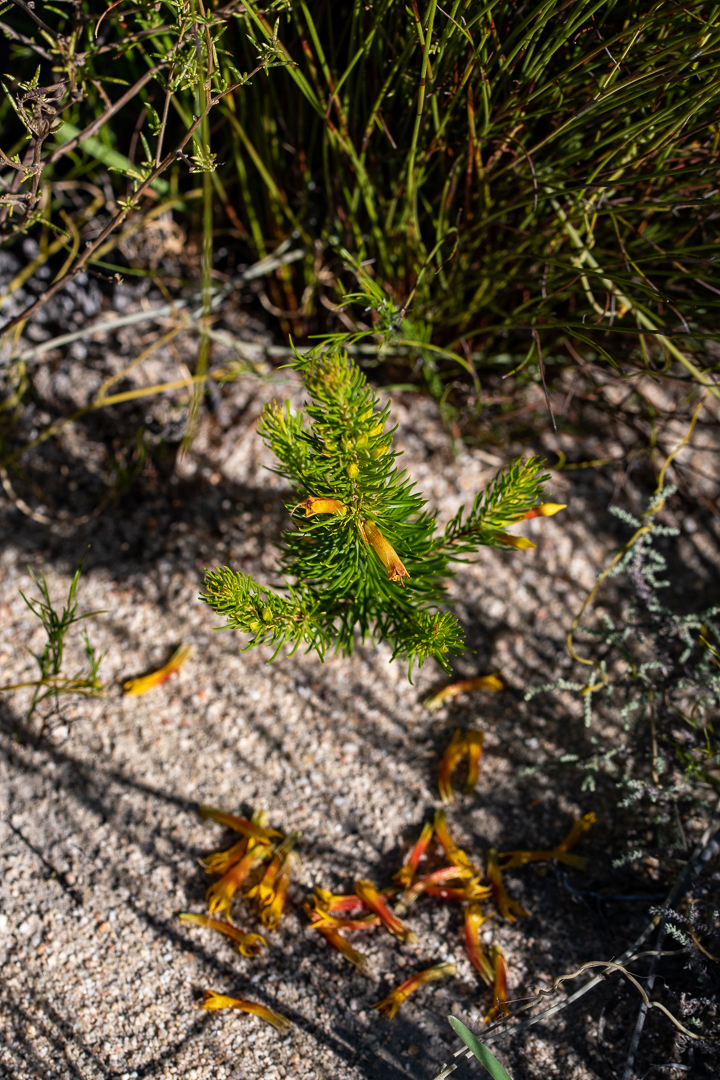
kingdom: Plantae
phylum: Tracheophyta
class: Magnoliopsida
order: Ericales
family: Ericaceae
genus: Erica
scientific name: Erica grandiflora
